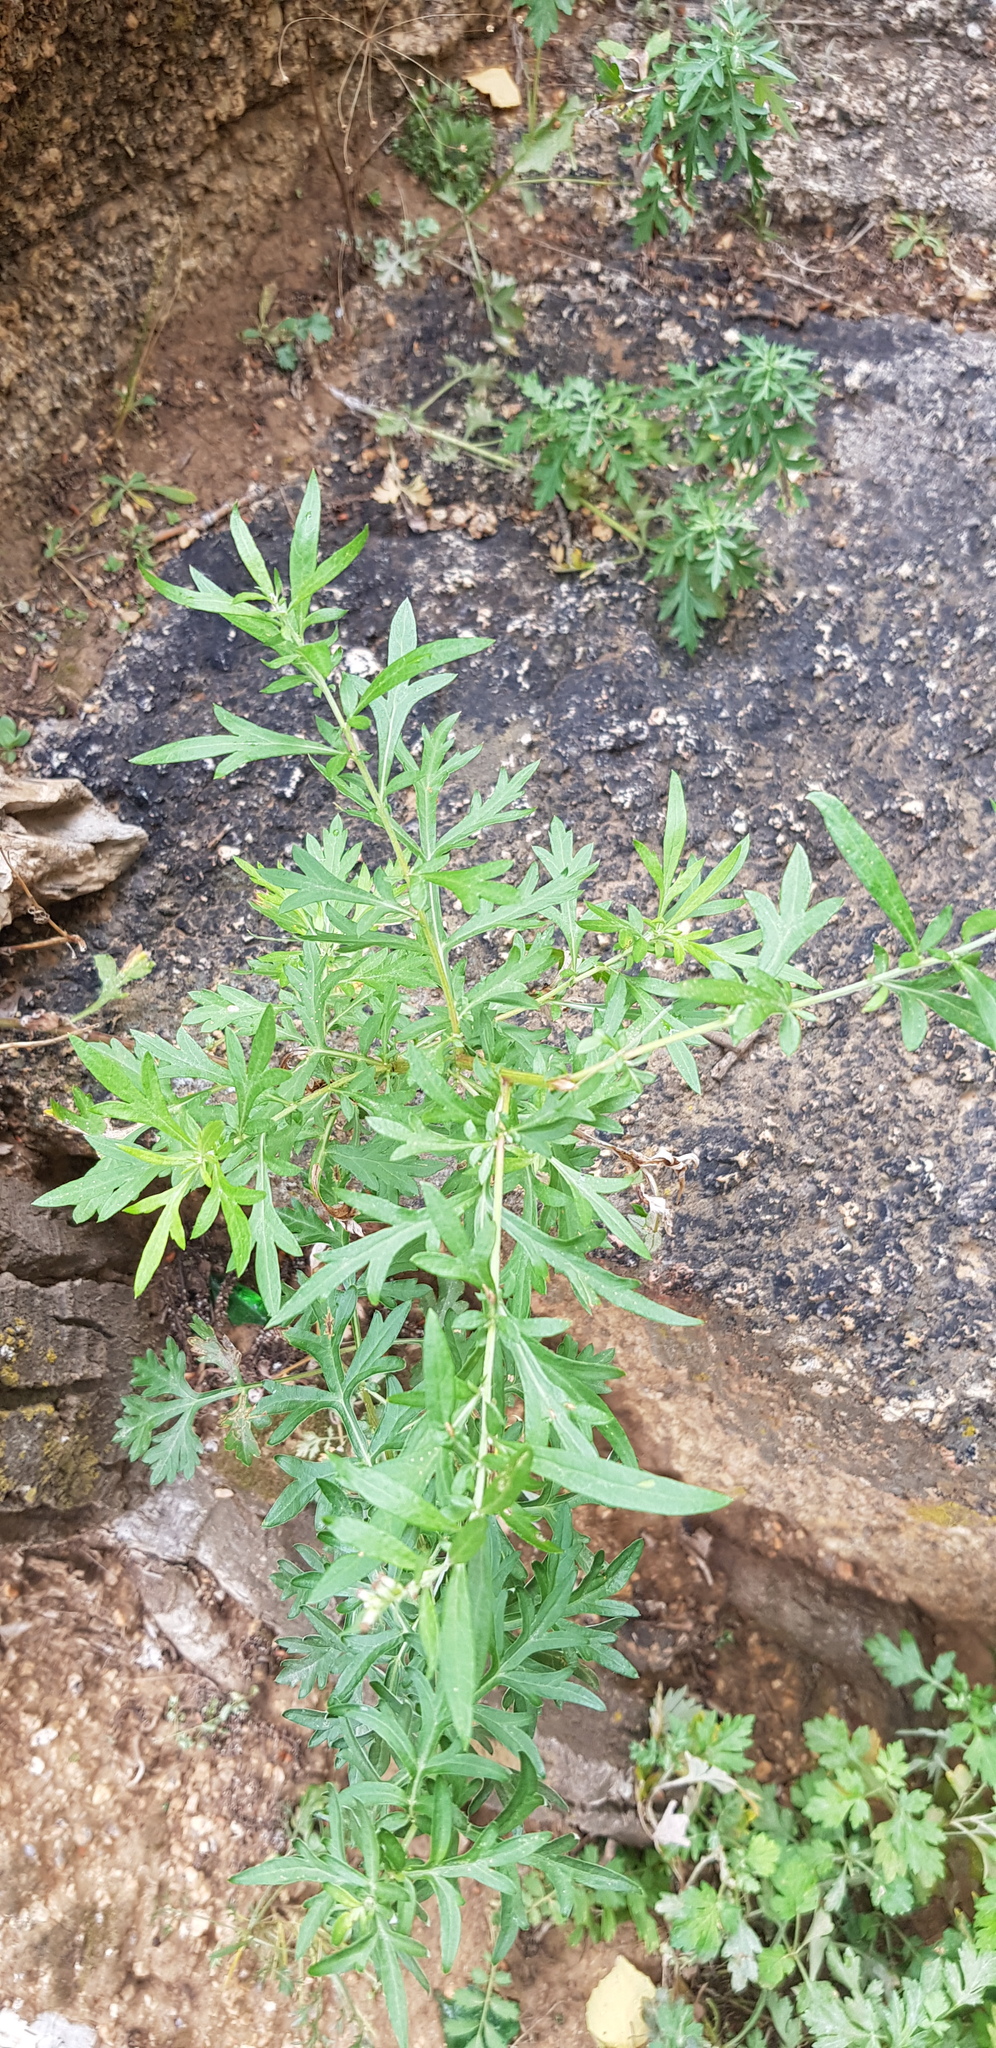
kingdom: Plantae
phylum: Tracheophyta
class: Magnoliopsida
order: Asterales
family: Asteraceae
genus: Artemisia
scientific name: Artemisia vulgaris
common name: Mugwort
